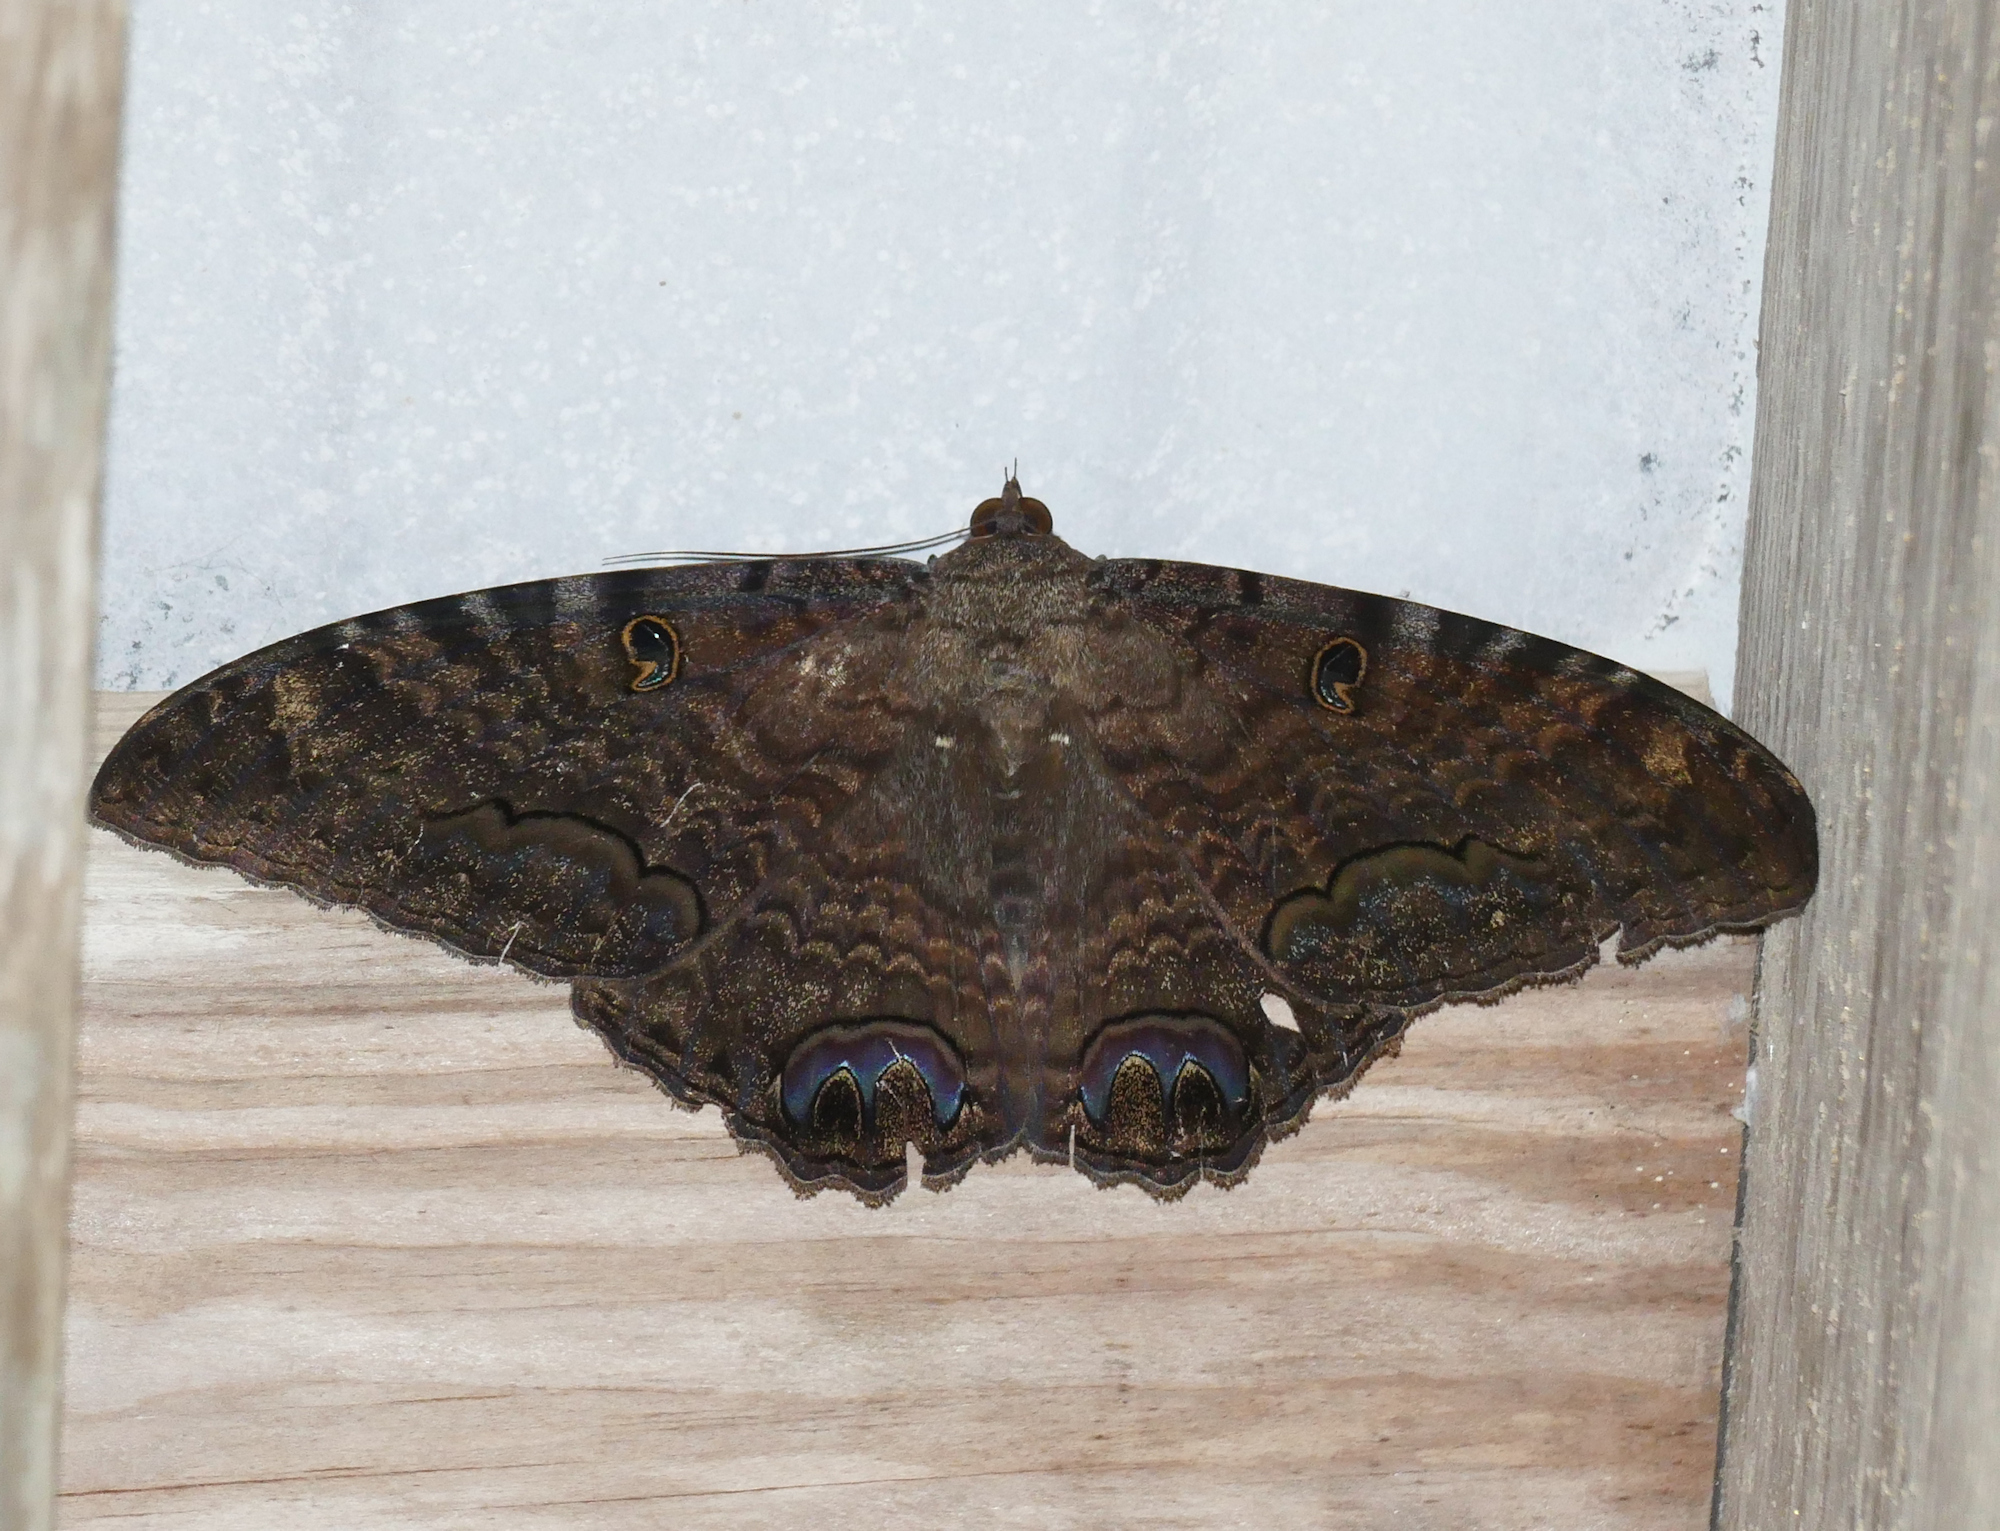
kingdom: Animalia
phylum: Arthropoda
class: Insecta
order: Lepidoptera
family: Erebidae
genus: Ascalapha
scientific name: Ascalapha odorata
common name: Black witch
